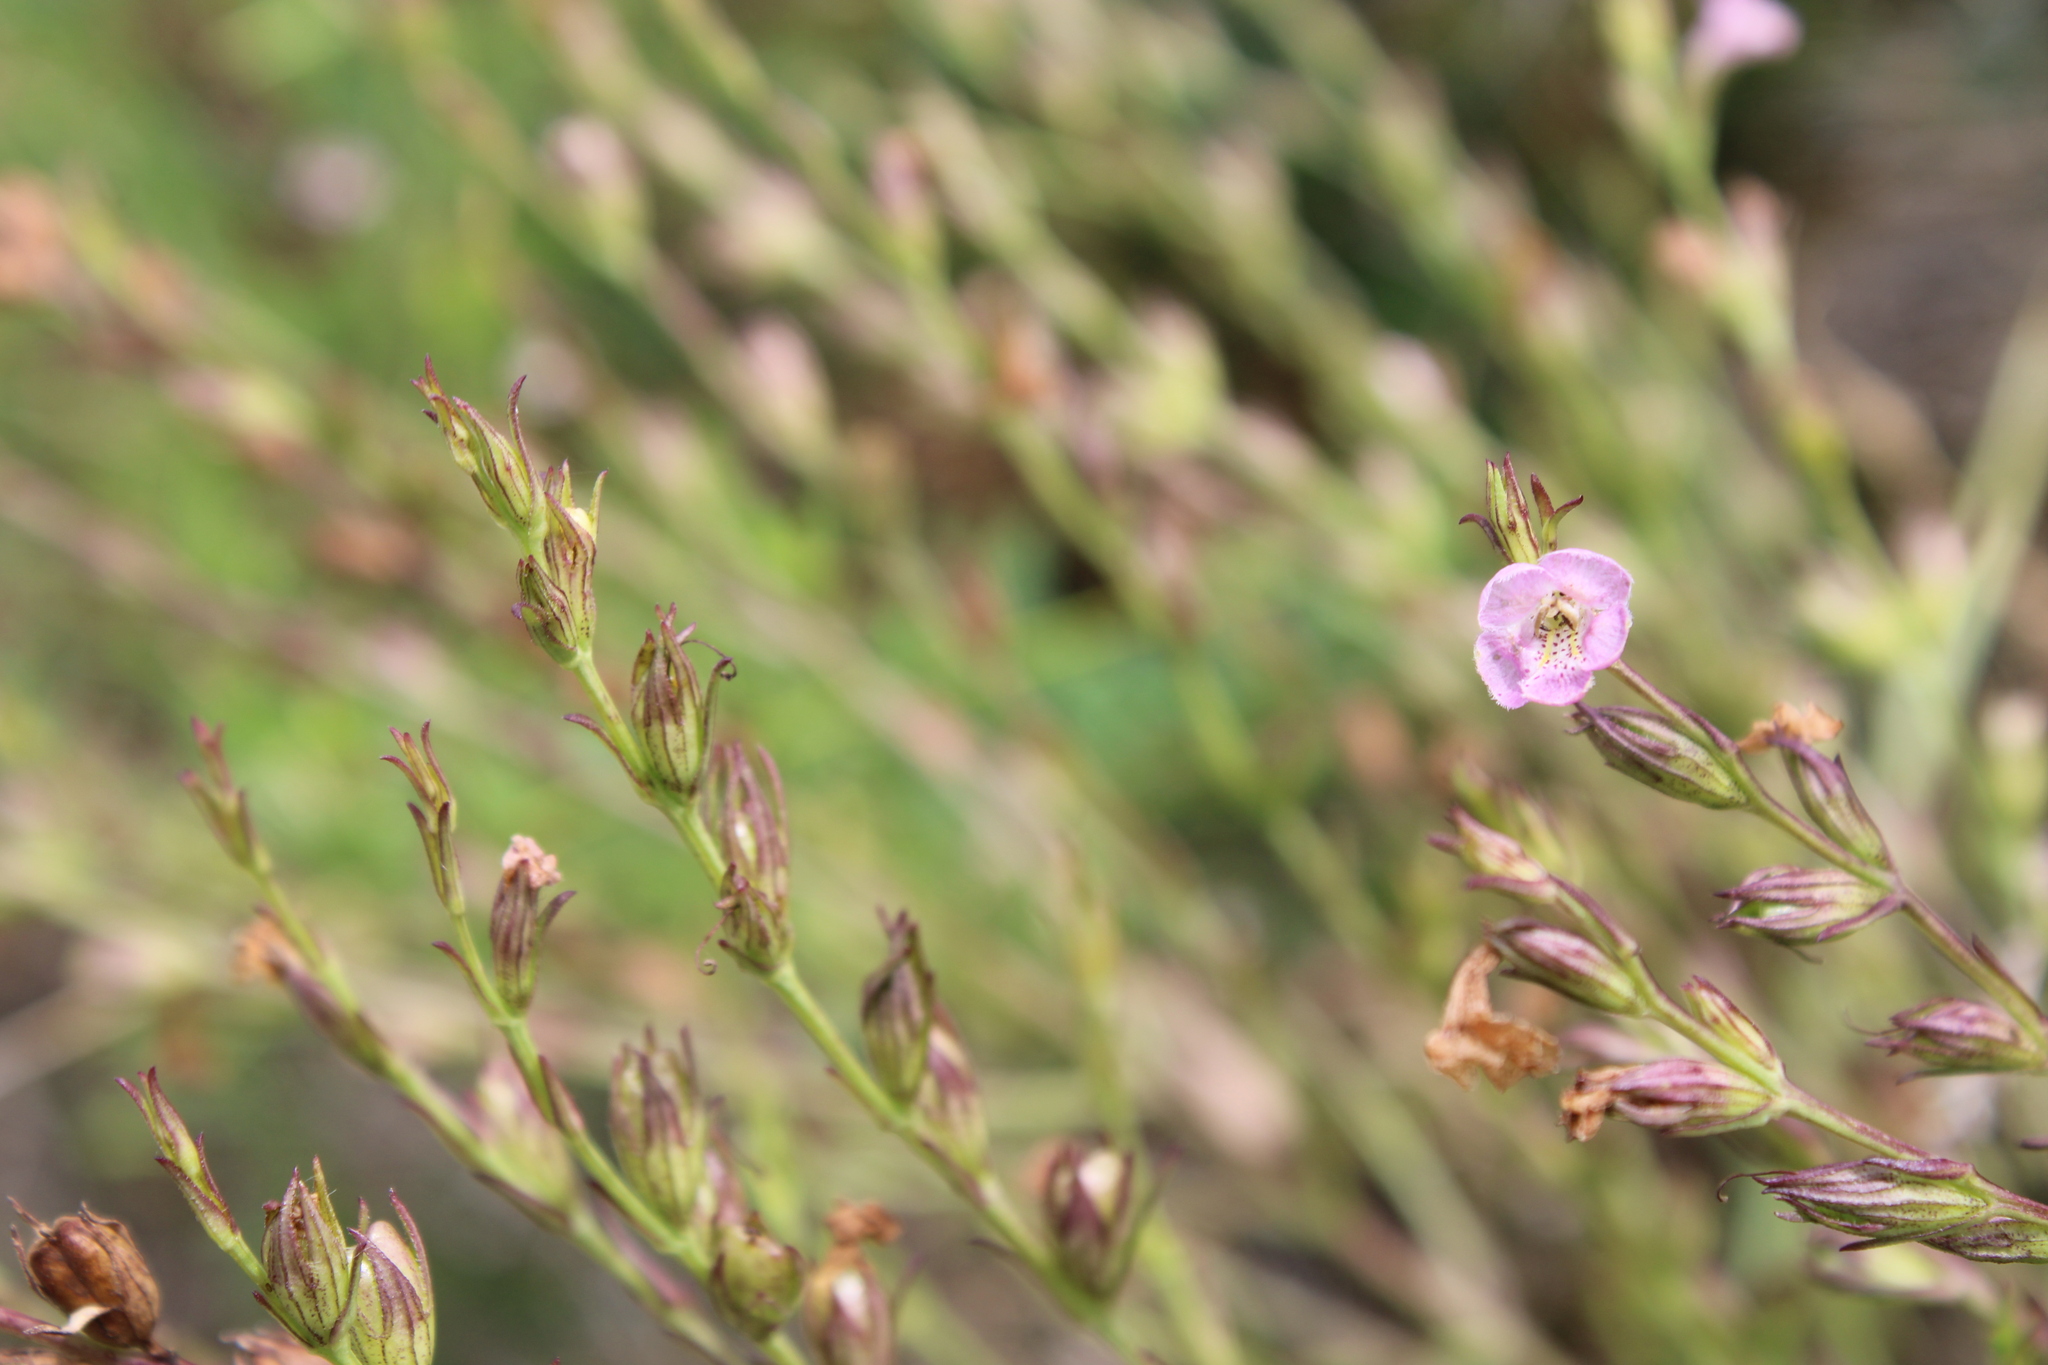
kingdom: Plantae
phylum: Tracheophyta
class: Magnoliopsida
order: Lamiales
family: Orobanchaceae
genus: Agalinis
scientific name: Agalinis communis
